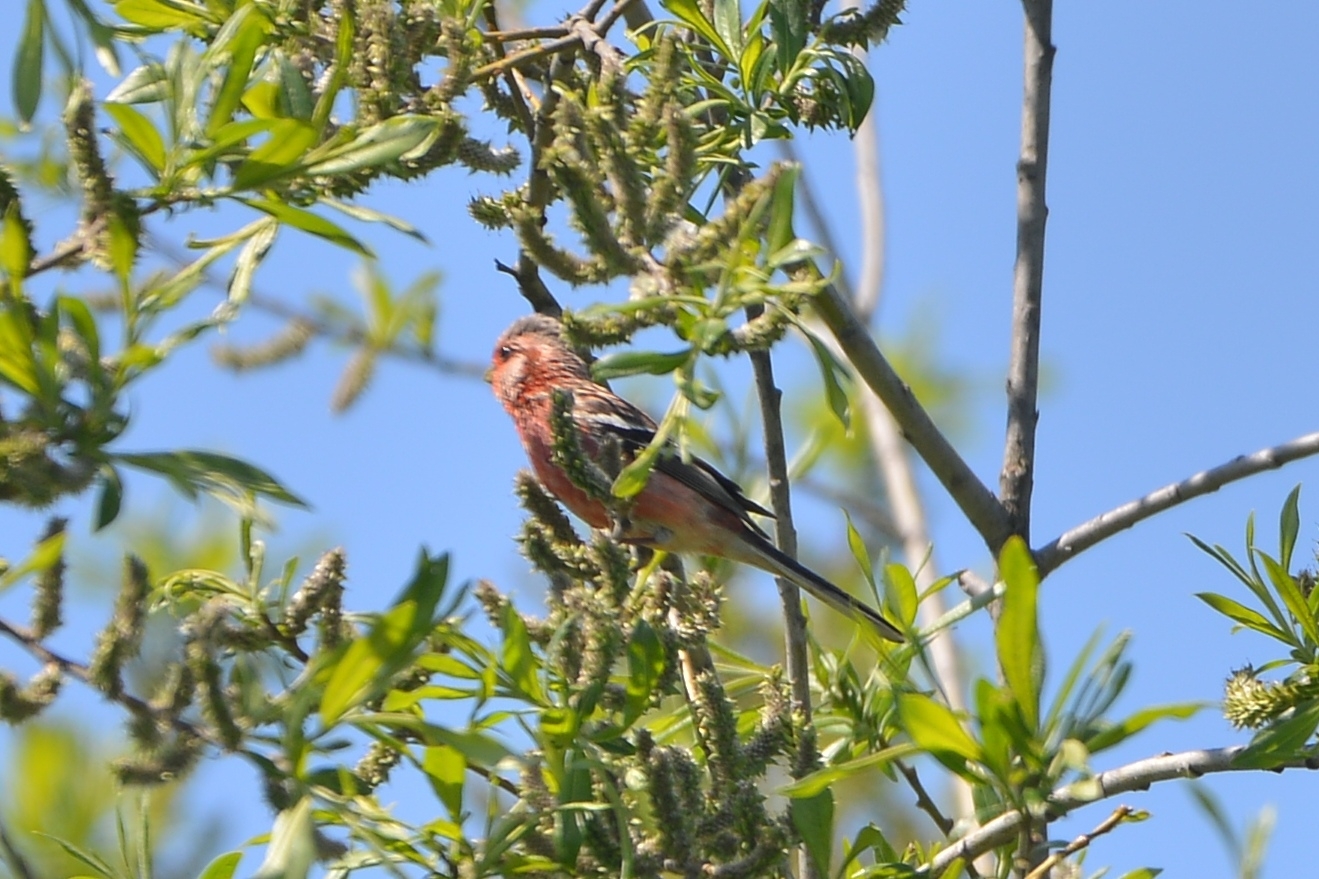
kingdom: Animalia
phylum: Chordata
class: Aves
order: Passeriformes
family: Fringillidae
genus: Carpodacus
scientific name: Carpodacus sibiricus
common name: Long-tailed rosefinch
